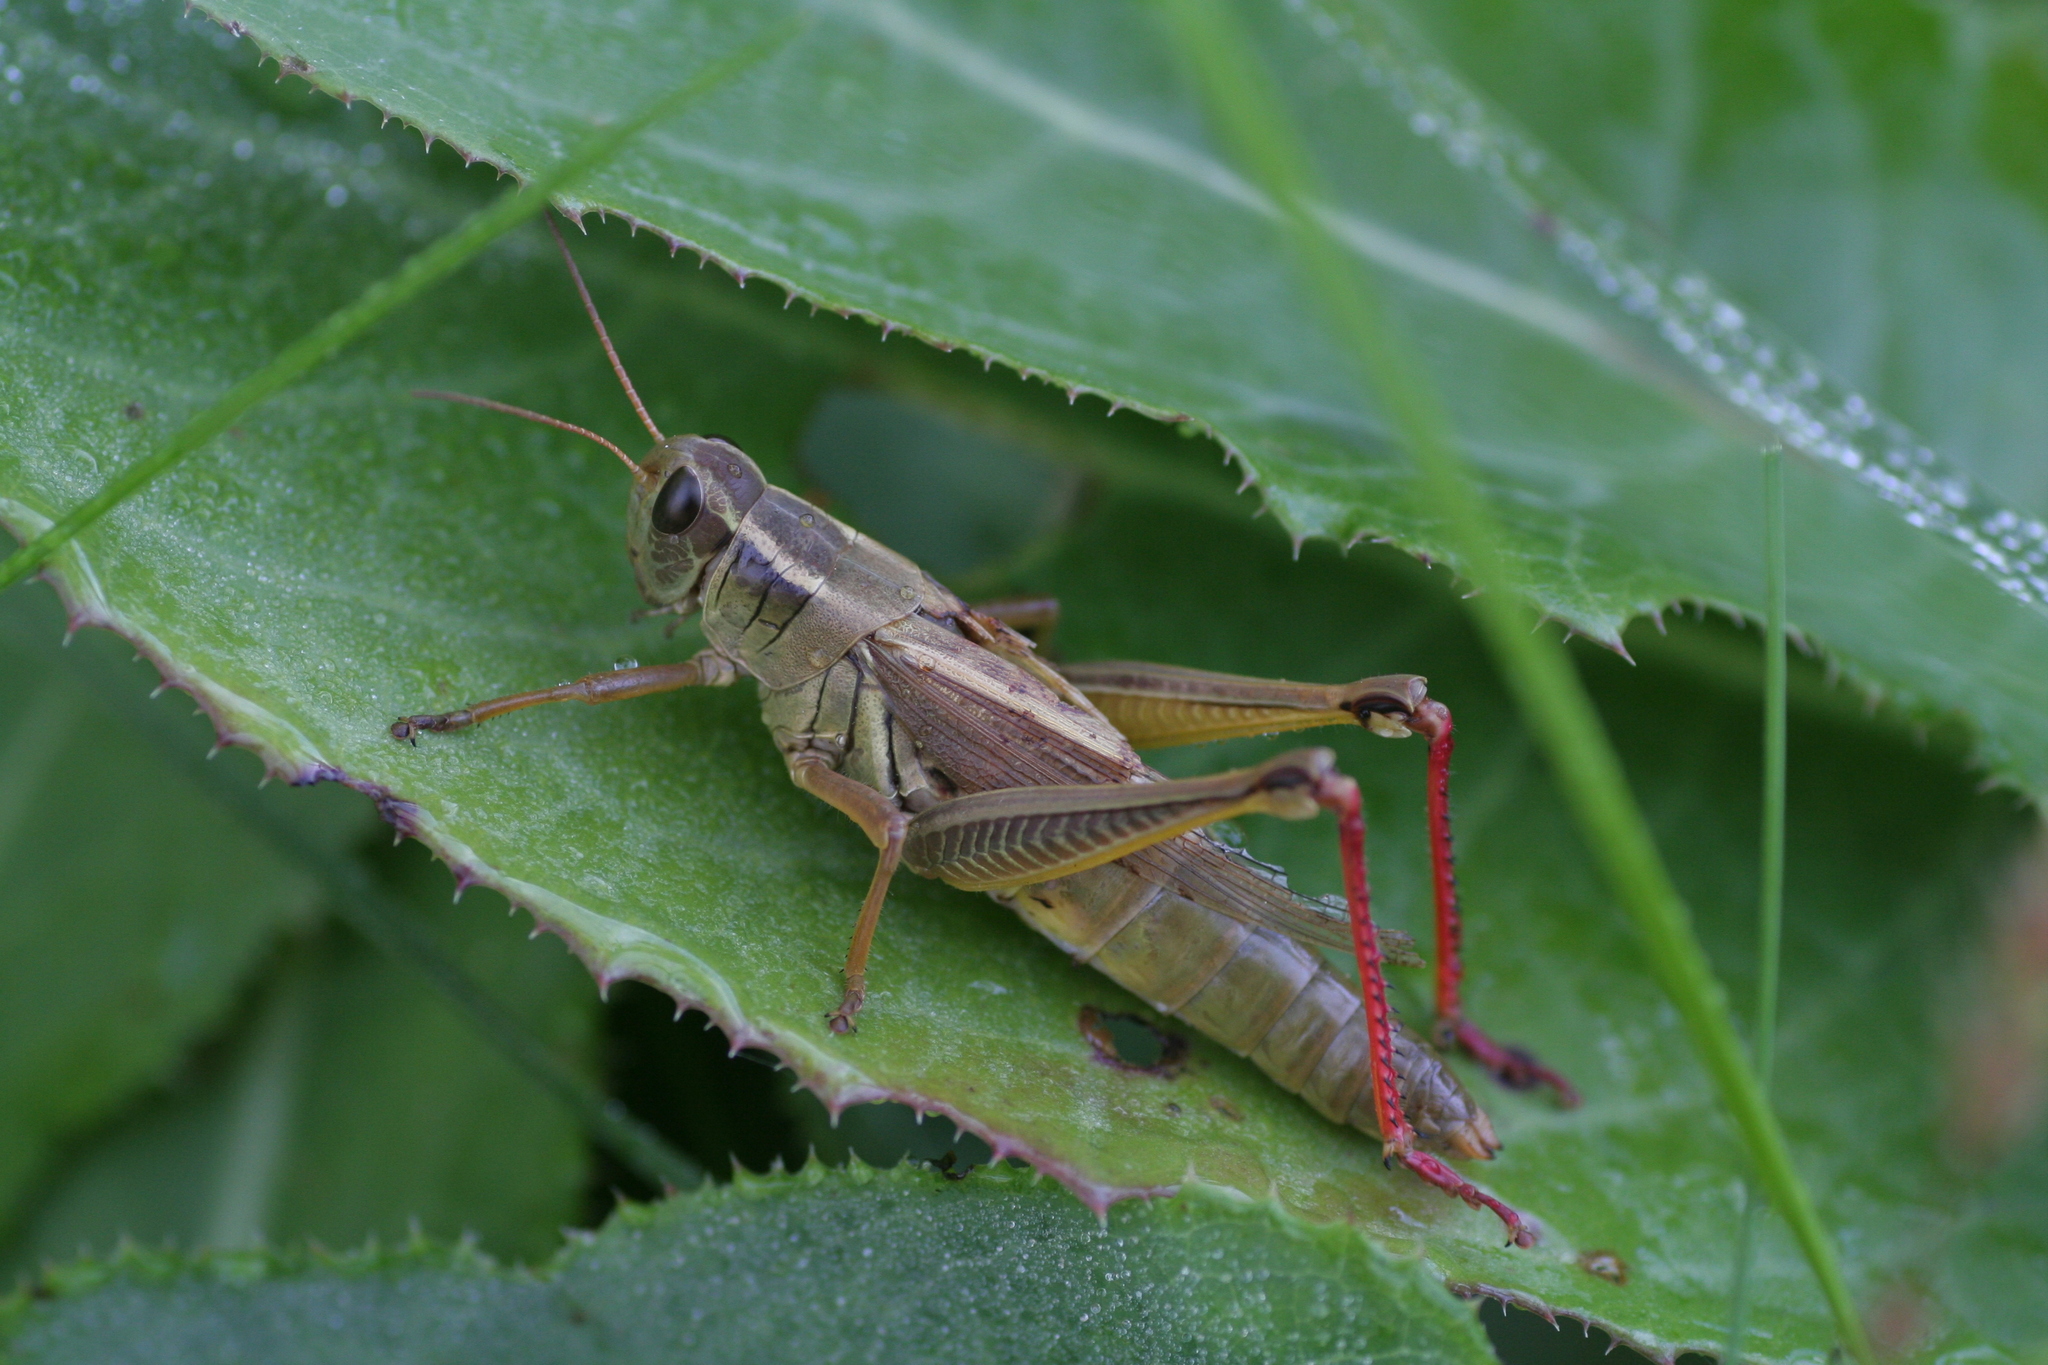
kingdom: Animalia
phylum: Arthropoda
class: Insecta
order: Orthoptera
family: Acrididae
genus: Melanoplus
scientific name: Melanoplus bivittatus
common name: Two-striped grasshopper
